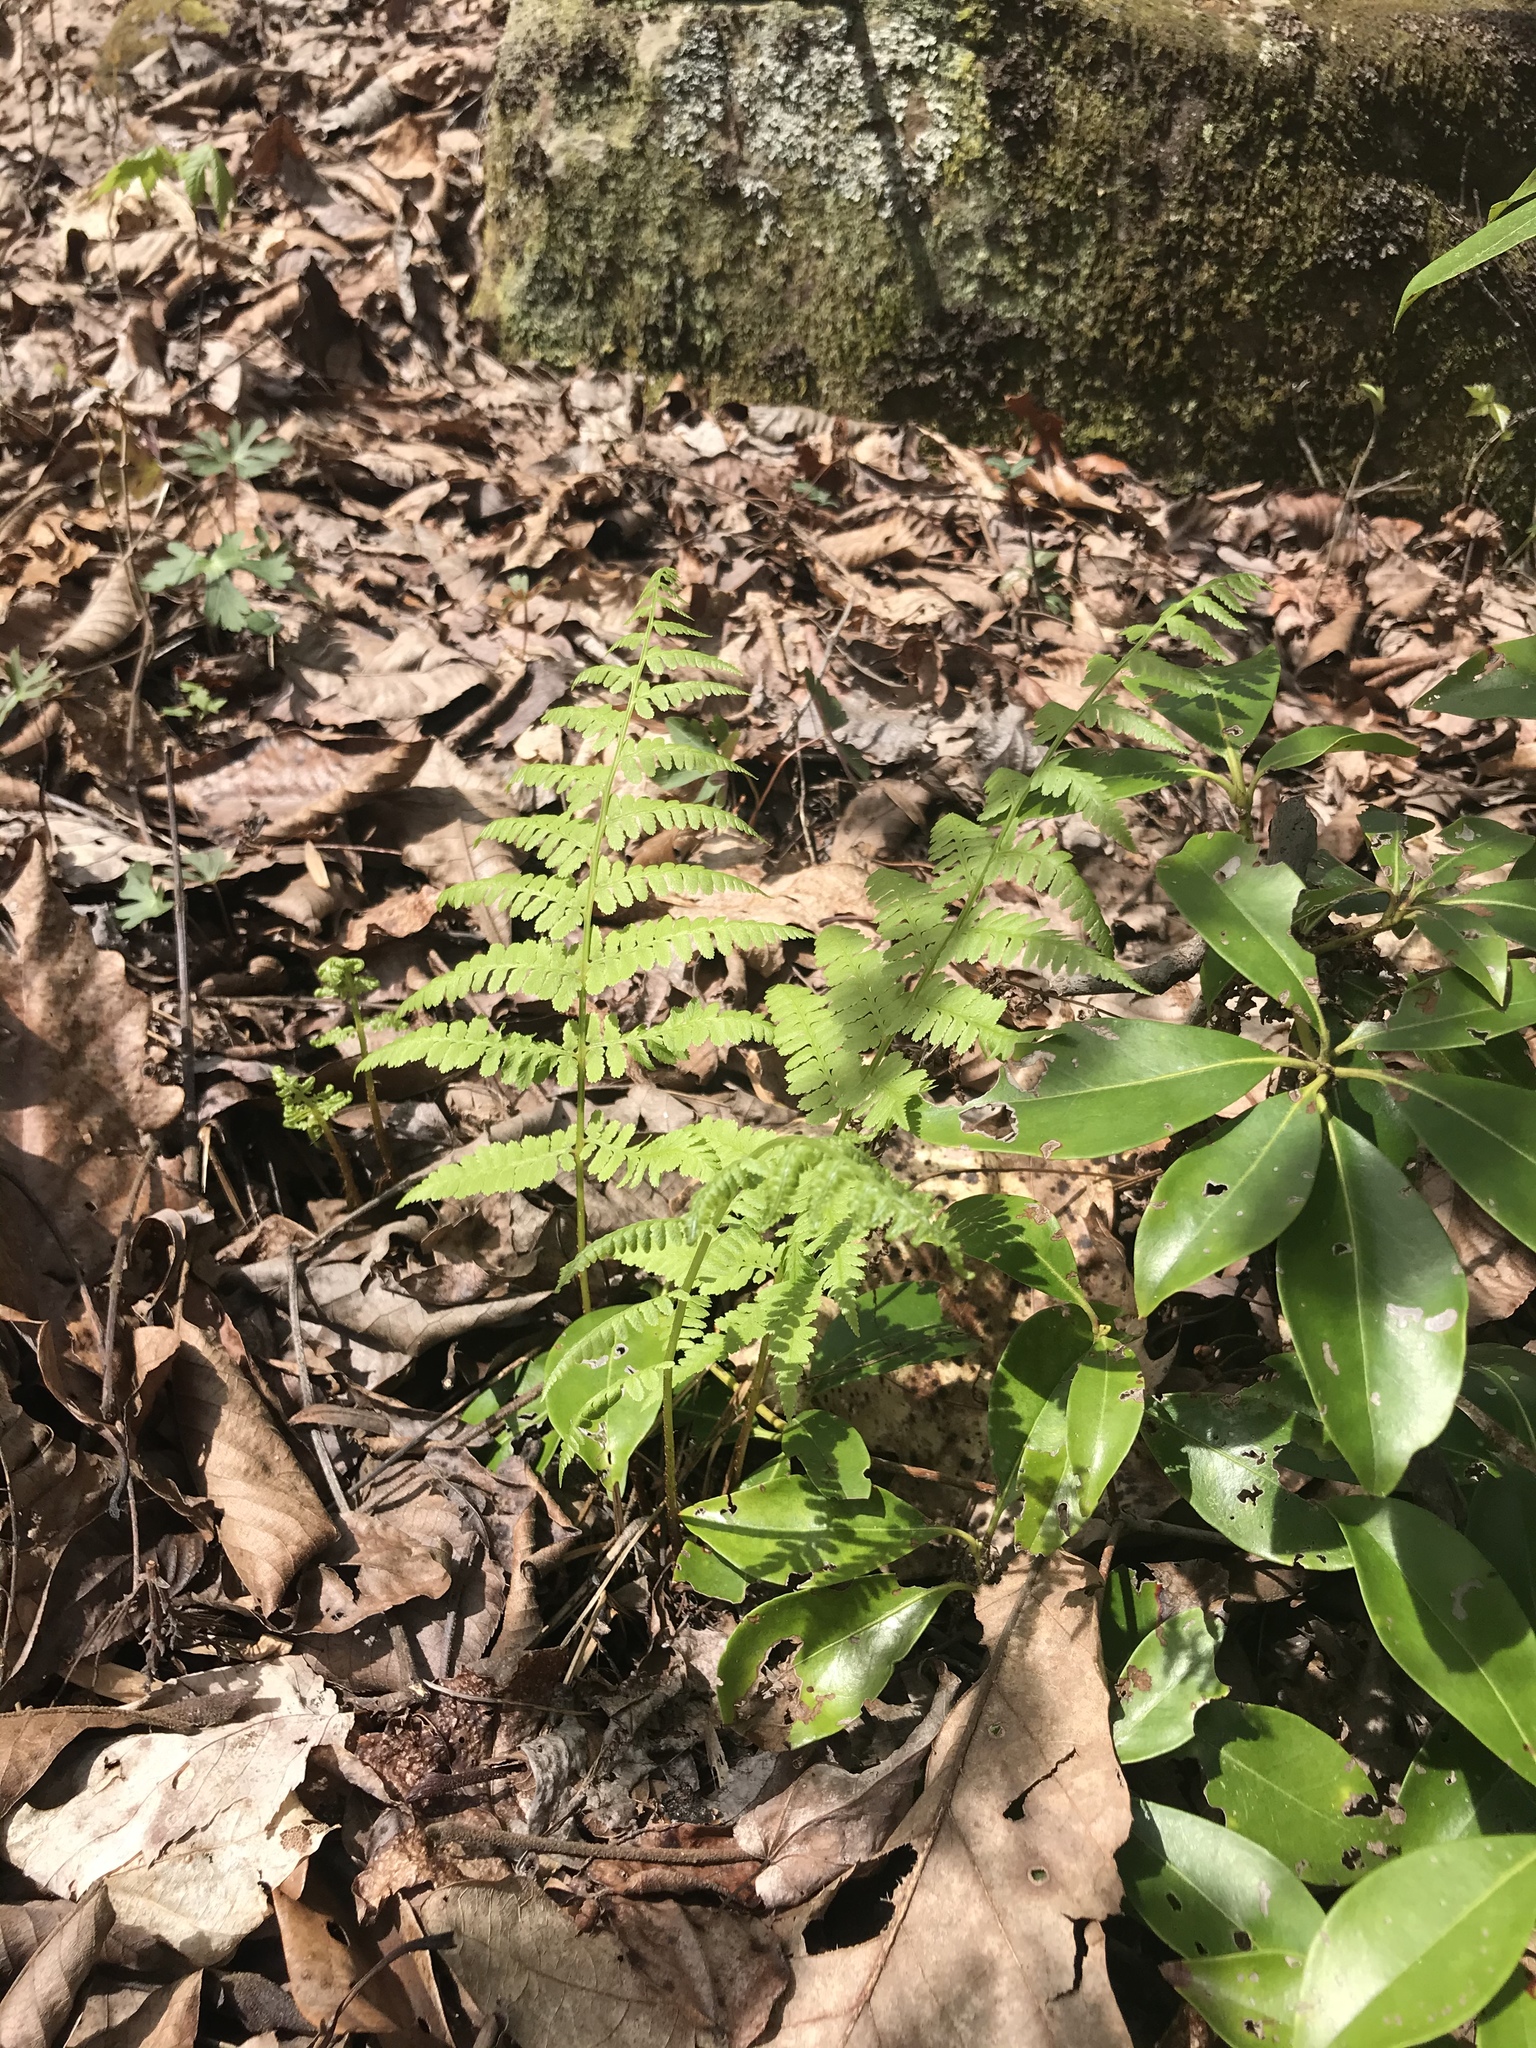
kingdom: Plantae
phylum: Tracheophyta
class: Polypodiopsida
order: Polypodiales
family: Athyriaceae
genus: Athyrium
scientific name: Athyrium asplenioides
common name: Southern lady fern
